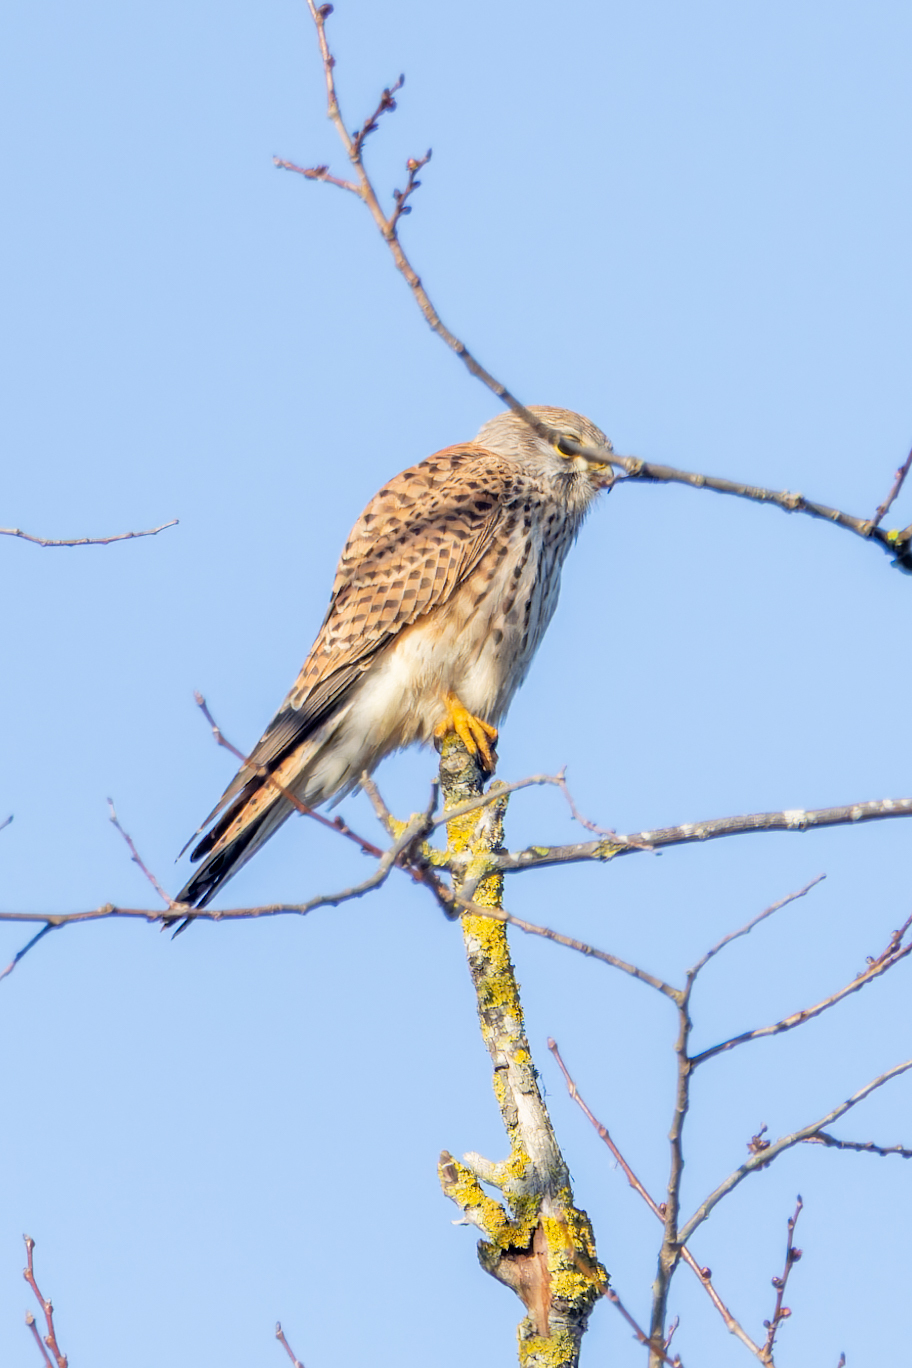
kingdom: Animalia
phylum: Chordata
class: Aves
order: Falconiformes
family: Falconidae
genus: Falco
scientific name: Falco tinnunculus
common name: Common kestrel
